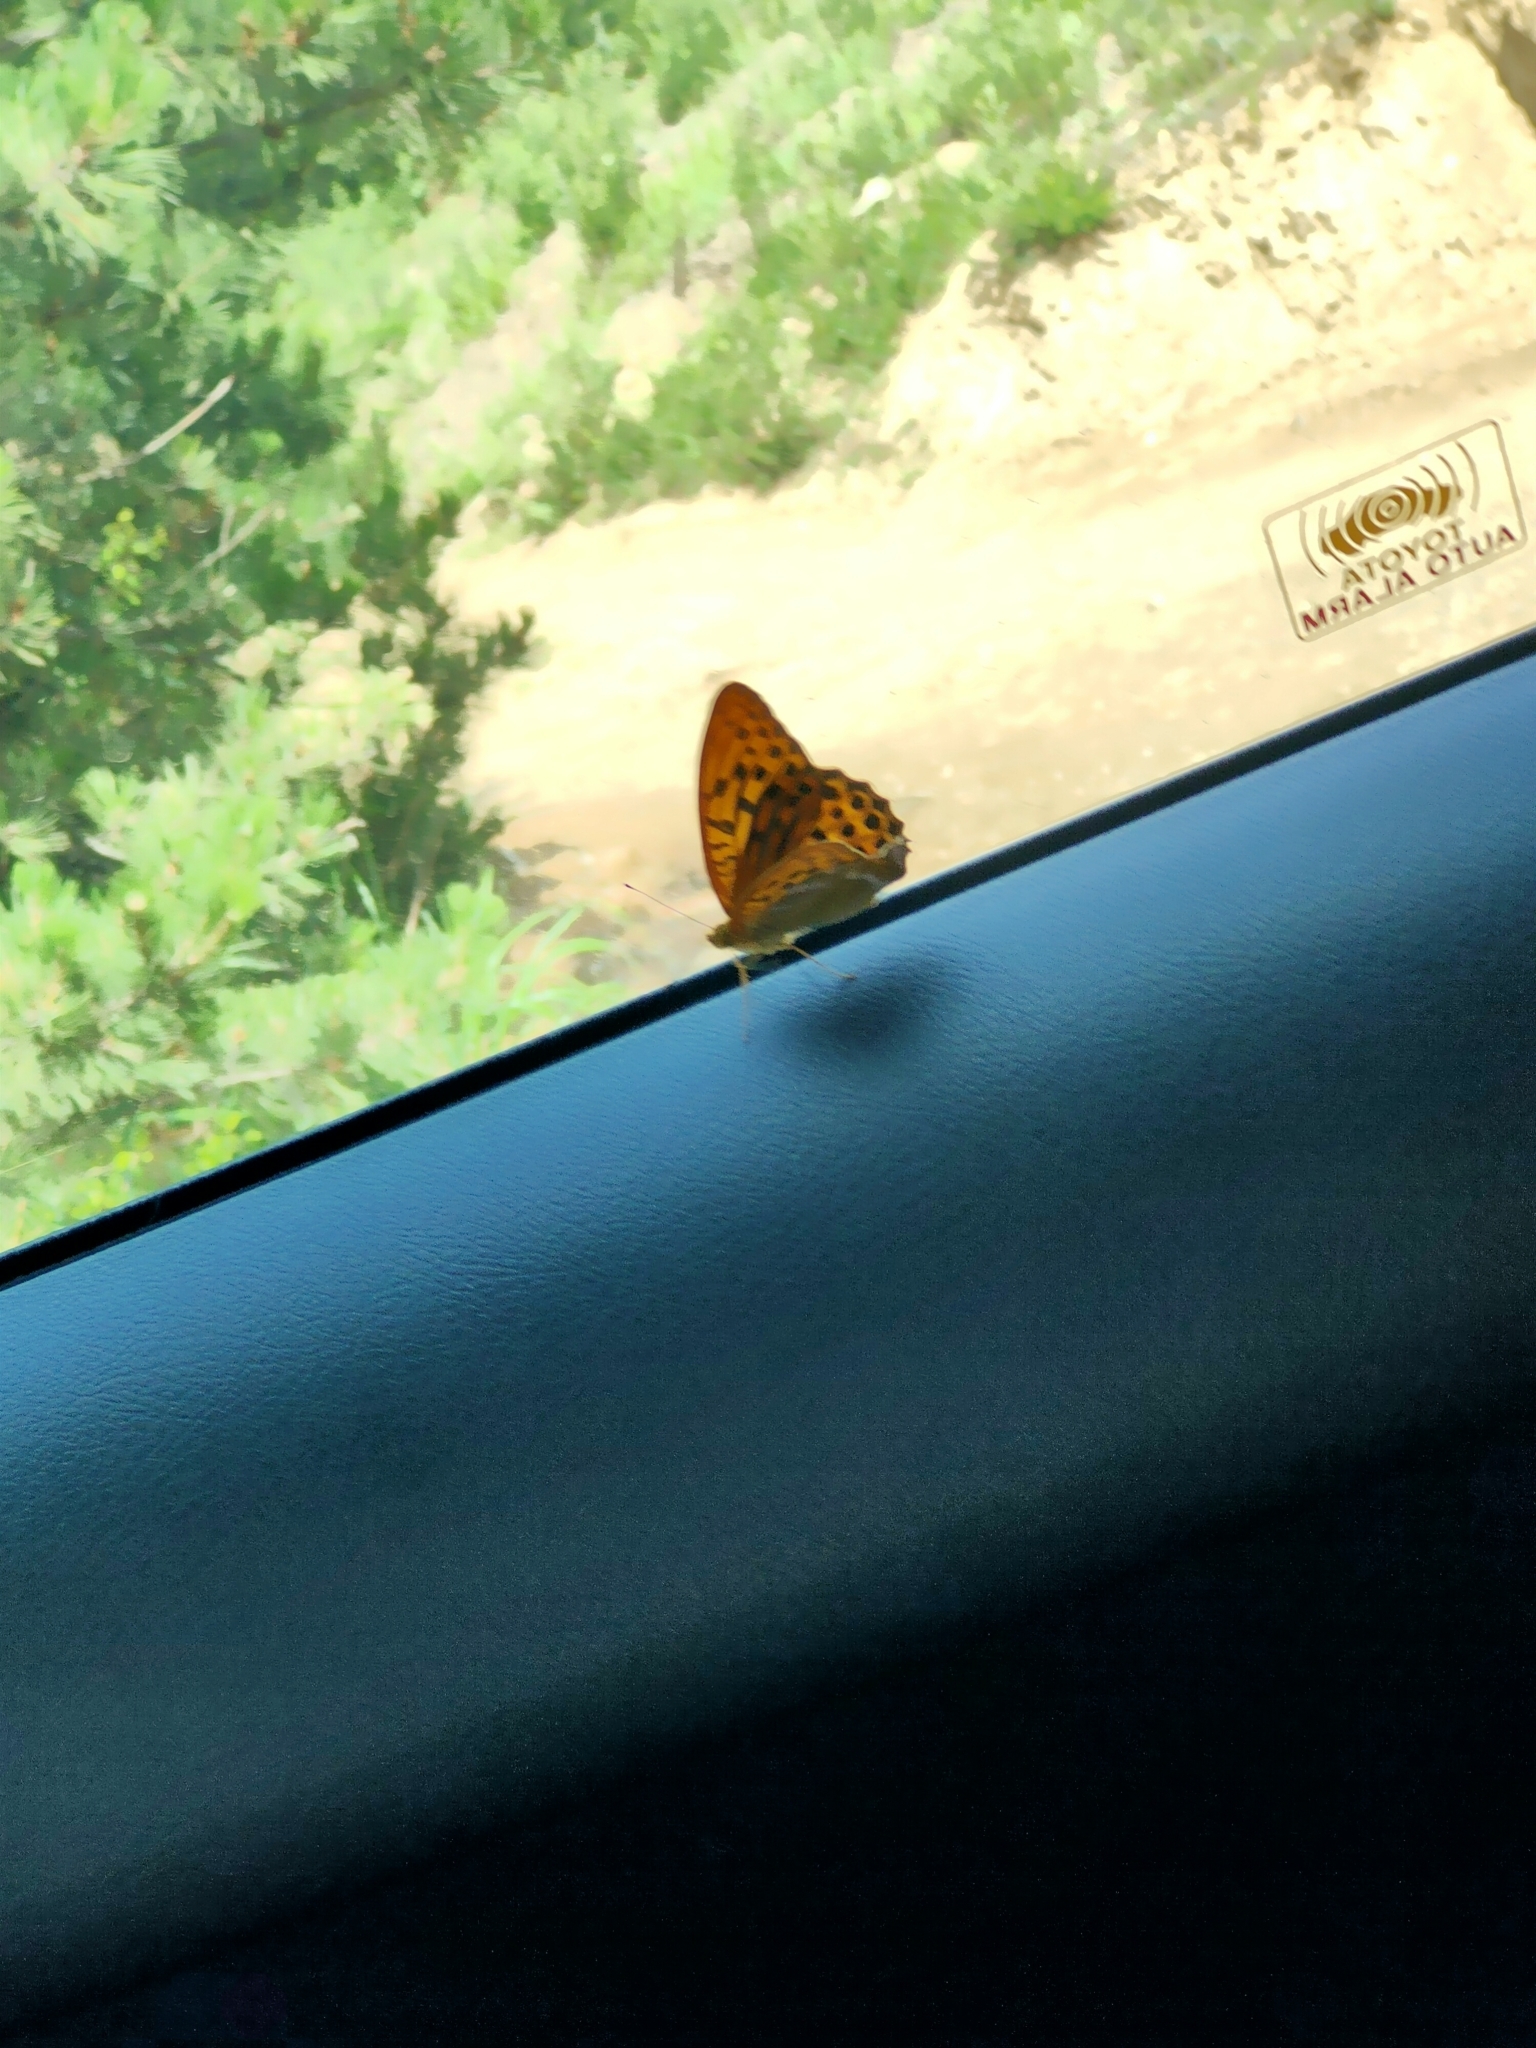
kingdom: Animalia
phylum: Arthropoda
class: Insecta
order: Lepidoptera
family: Nymphalidae
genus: Argynnis
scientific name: Argynnis paphia
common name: Silver-washed fritillary
